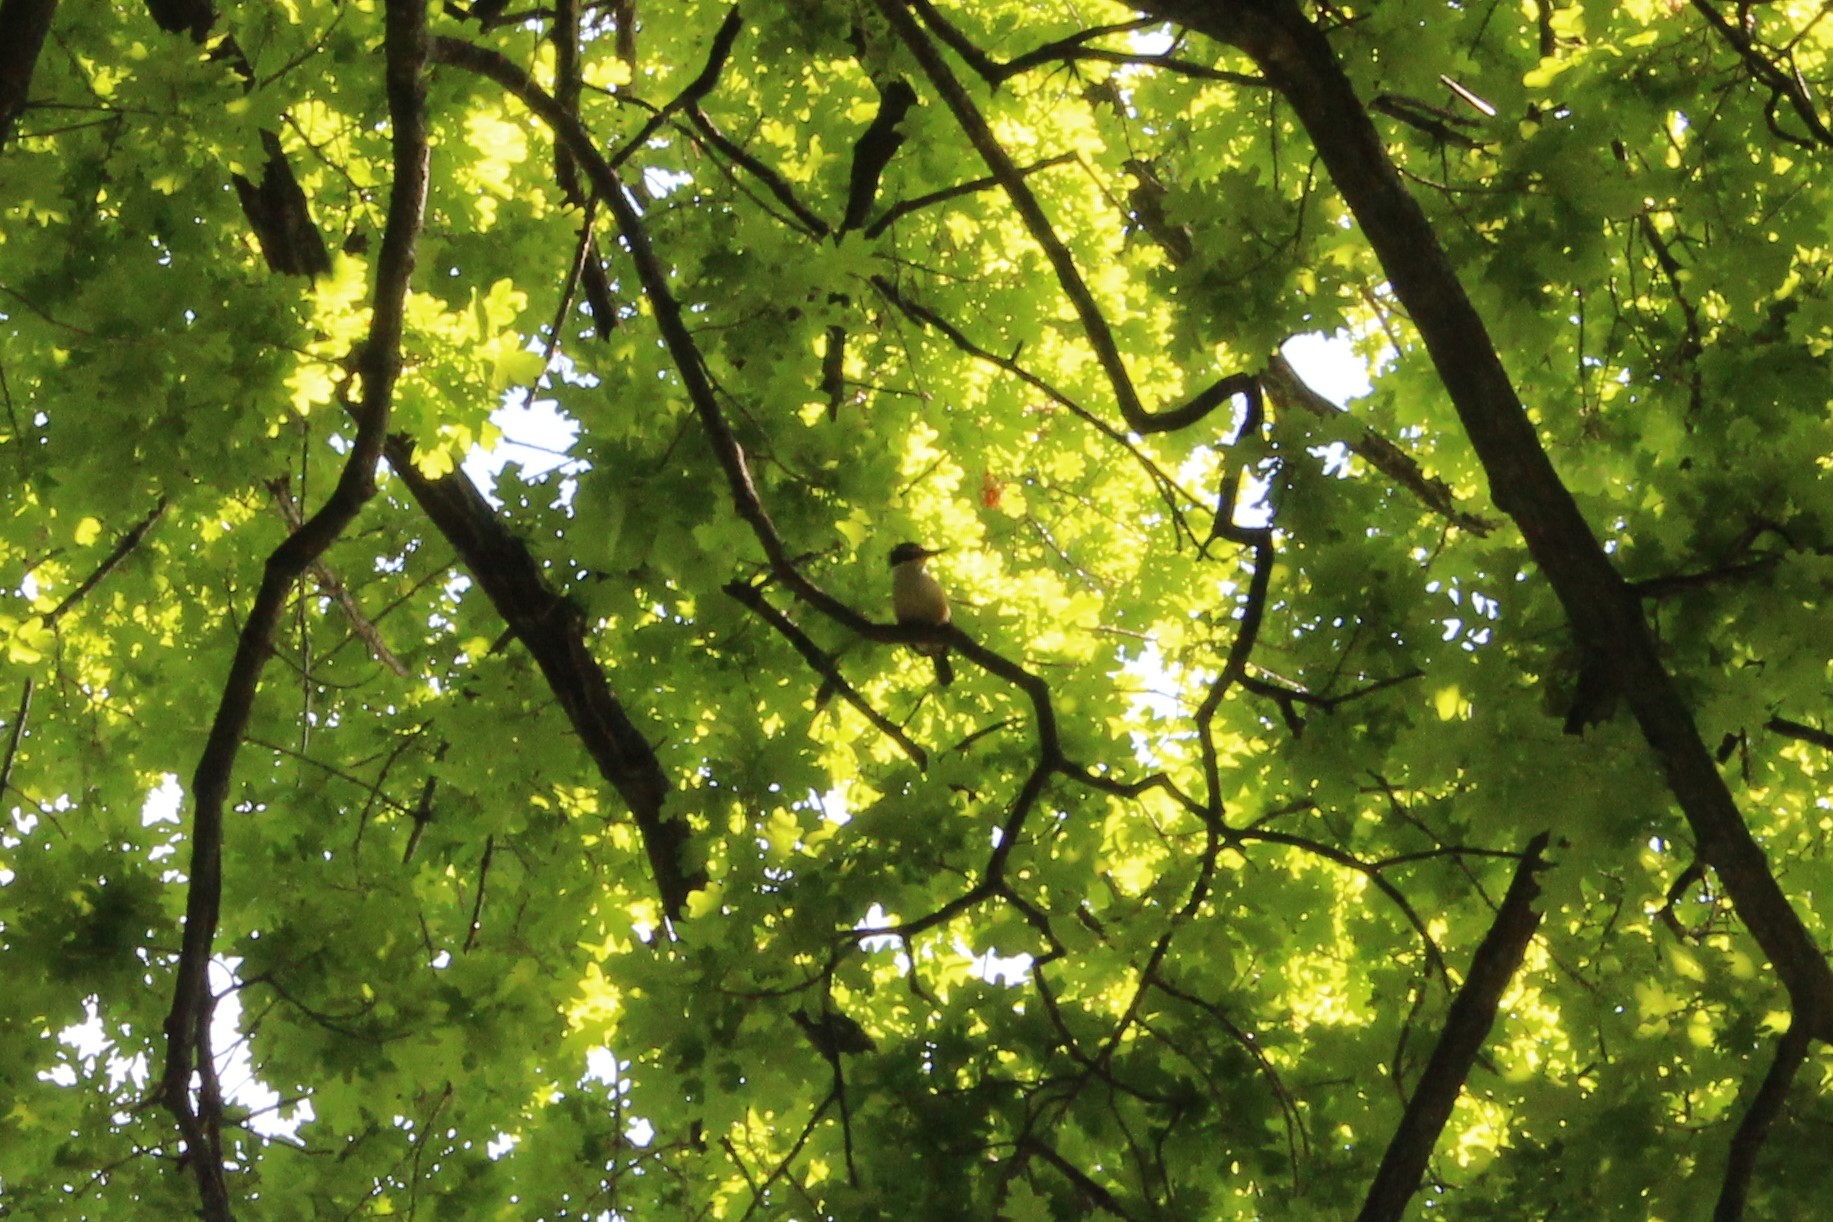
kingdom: Animalia
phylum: Chordata
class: Aves
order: Coraciiformes
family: Alcedinidae
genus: Todiramphus
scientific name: Todiramphus sanctus
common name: Sacred kingfisher
